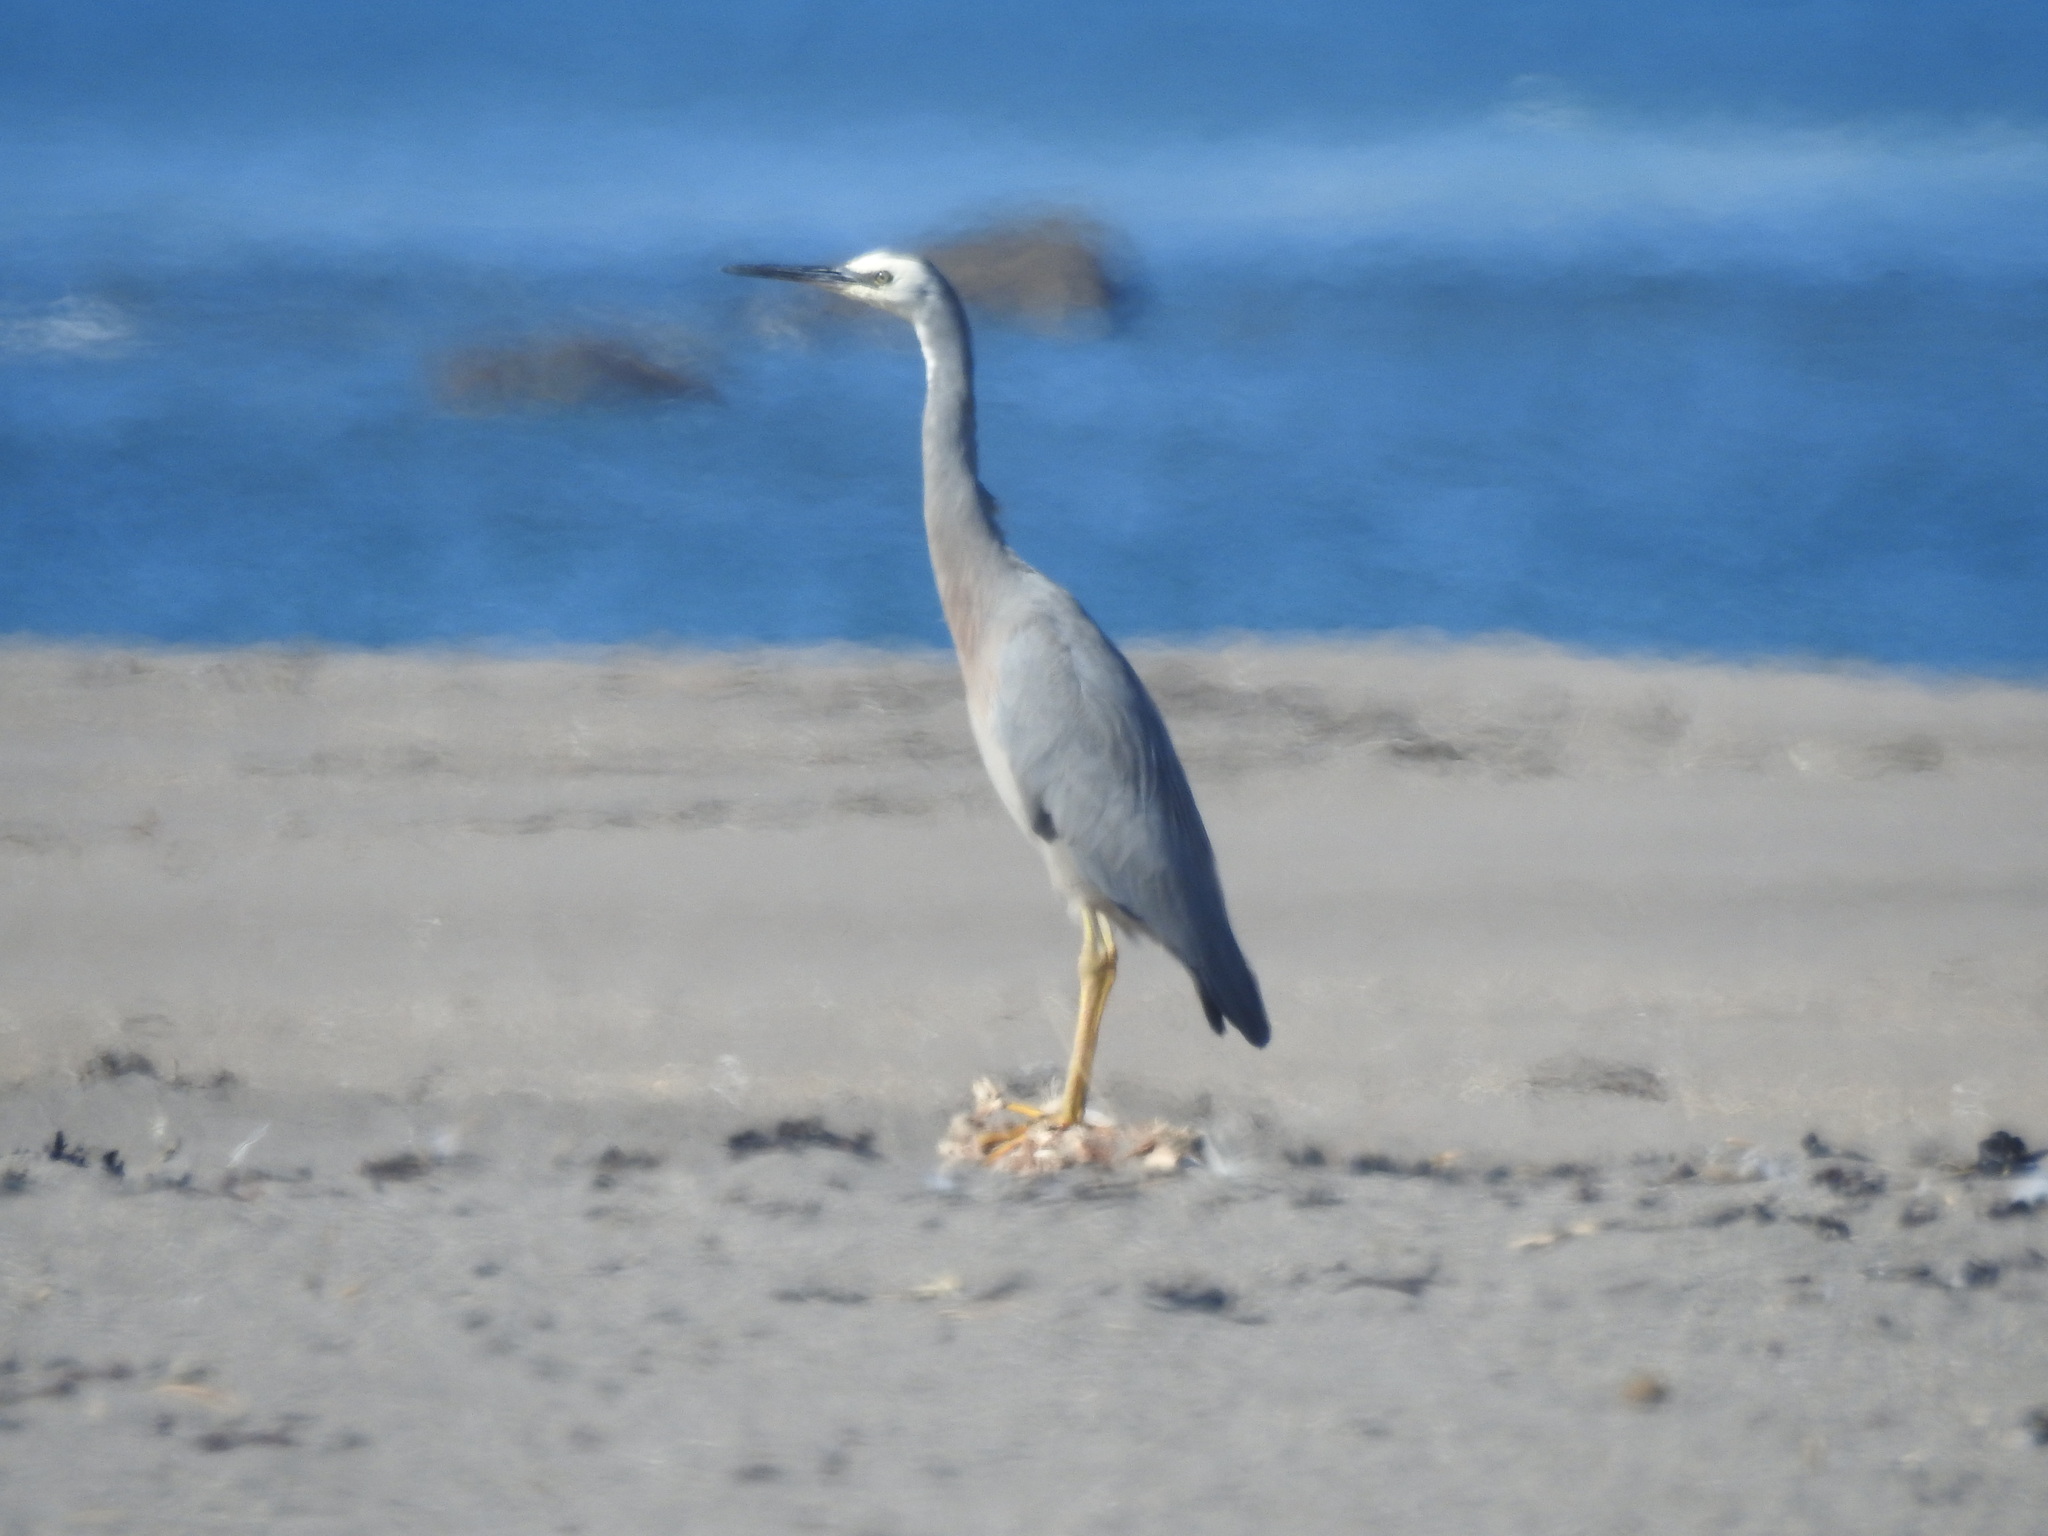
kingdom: Animalia
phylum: Chordata
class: Aves
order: Pelecaniformes
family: Ardeidae
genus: Egretta
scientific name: Egretta novaehollandiae
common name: White-faced heron
